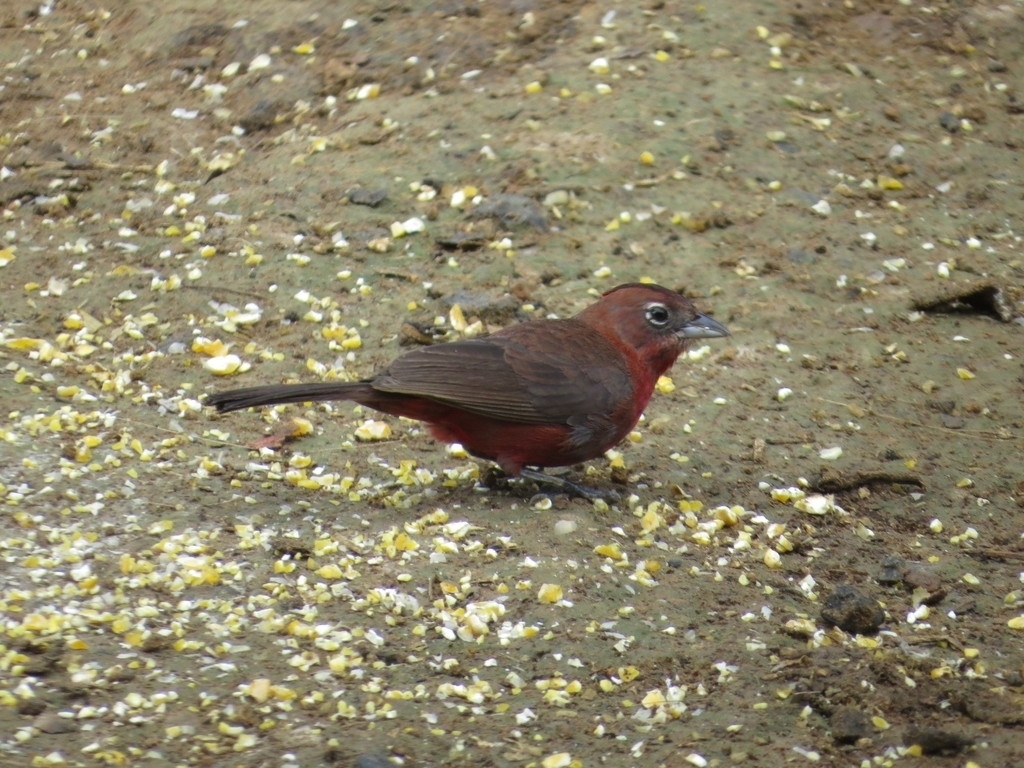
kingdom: Animalia
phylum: Chordata
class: Aves
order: Passeriformes
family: Thraupidae
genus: Coryphospingus
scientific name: Coryphospingus cucullatus
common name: Red pileated finch
